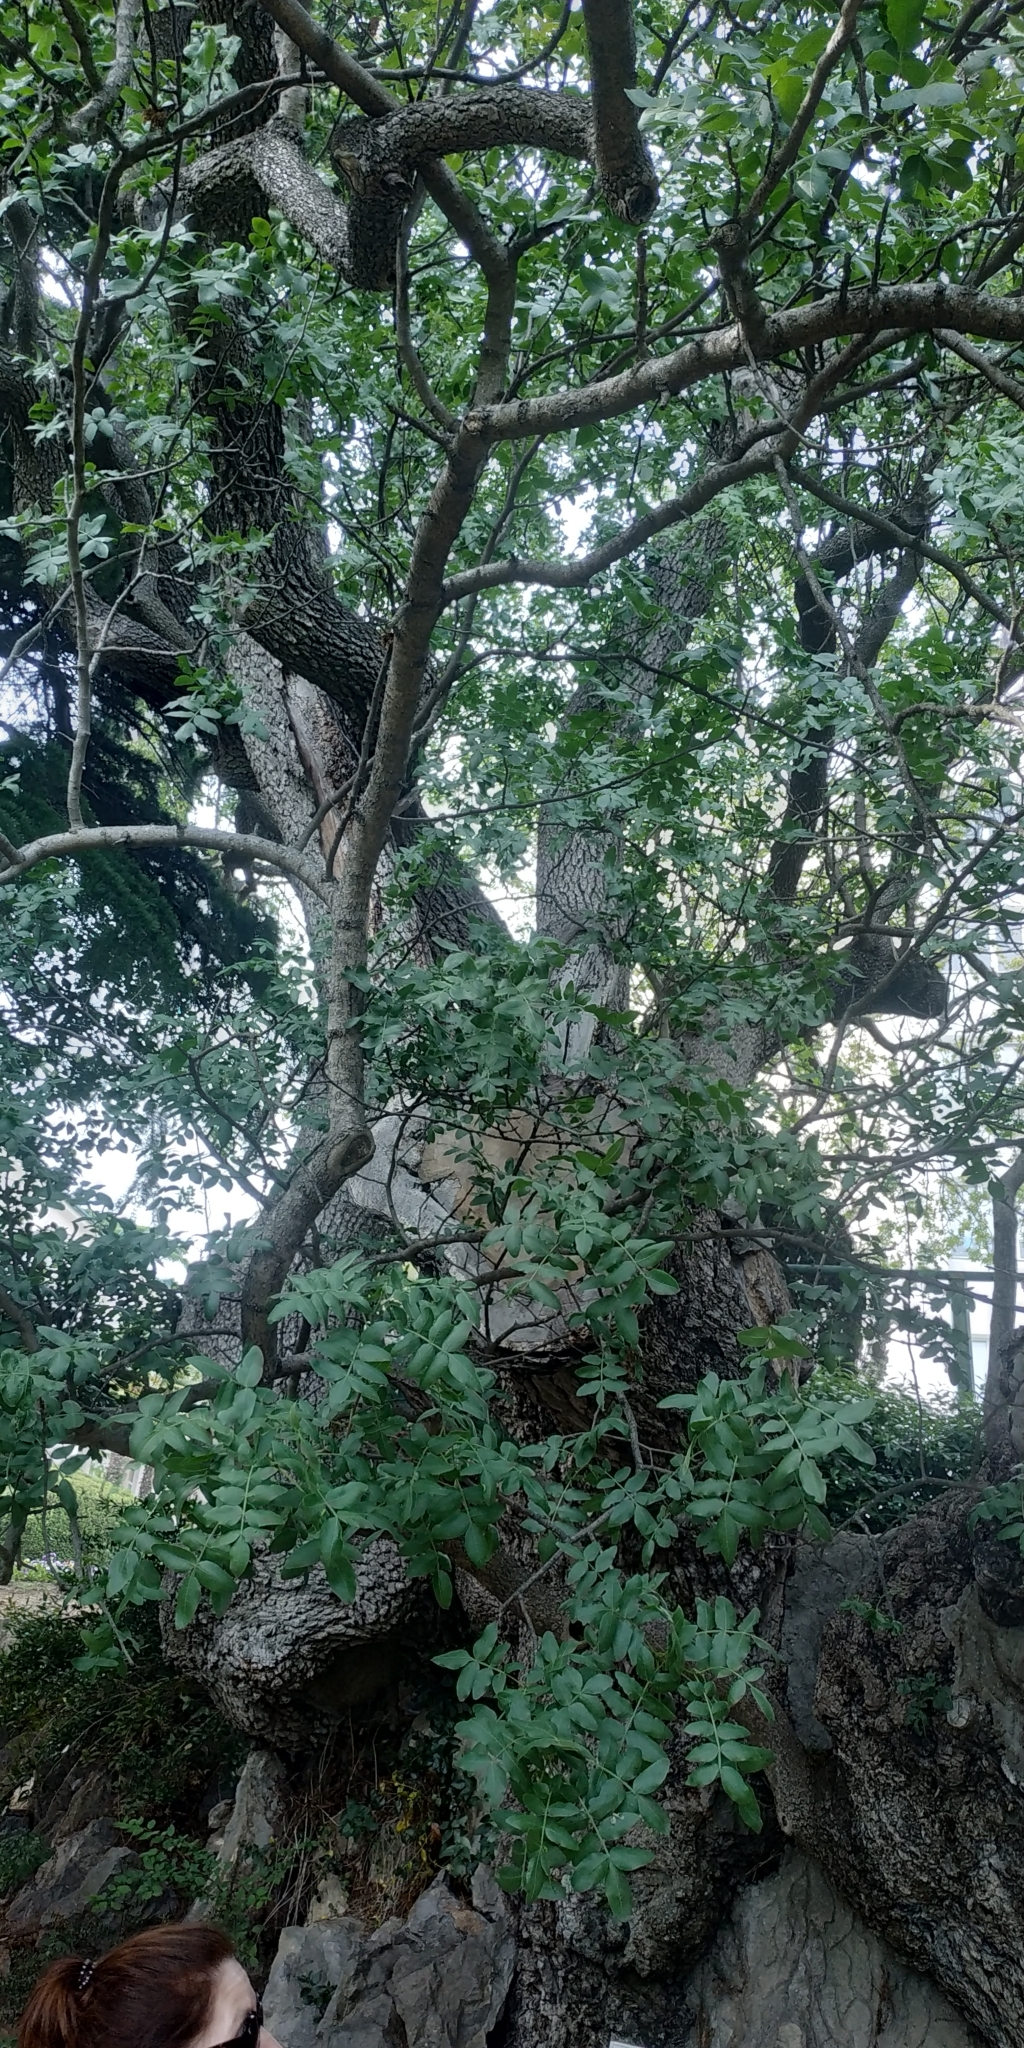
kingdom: Plantae
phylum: Tracheophyta
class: Magnoliopsida
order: Sapindales
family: Anacardiaceae
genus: Pistacia
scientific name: Pistacia atlantica
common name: Mt. atlas mastic tree
